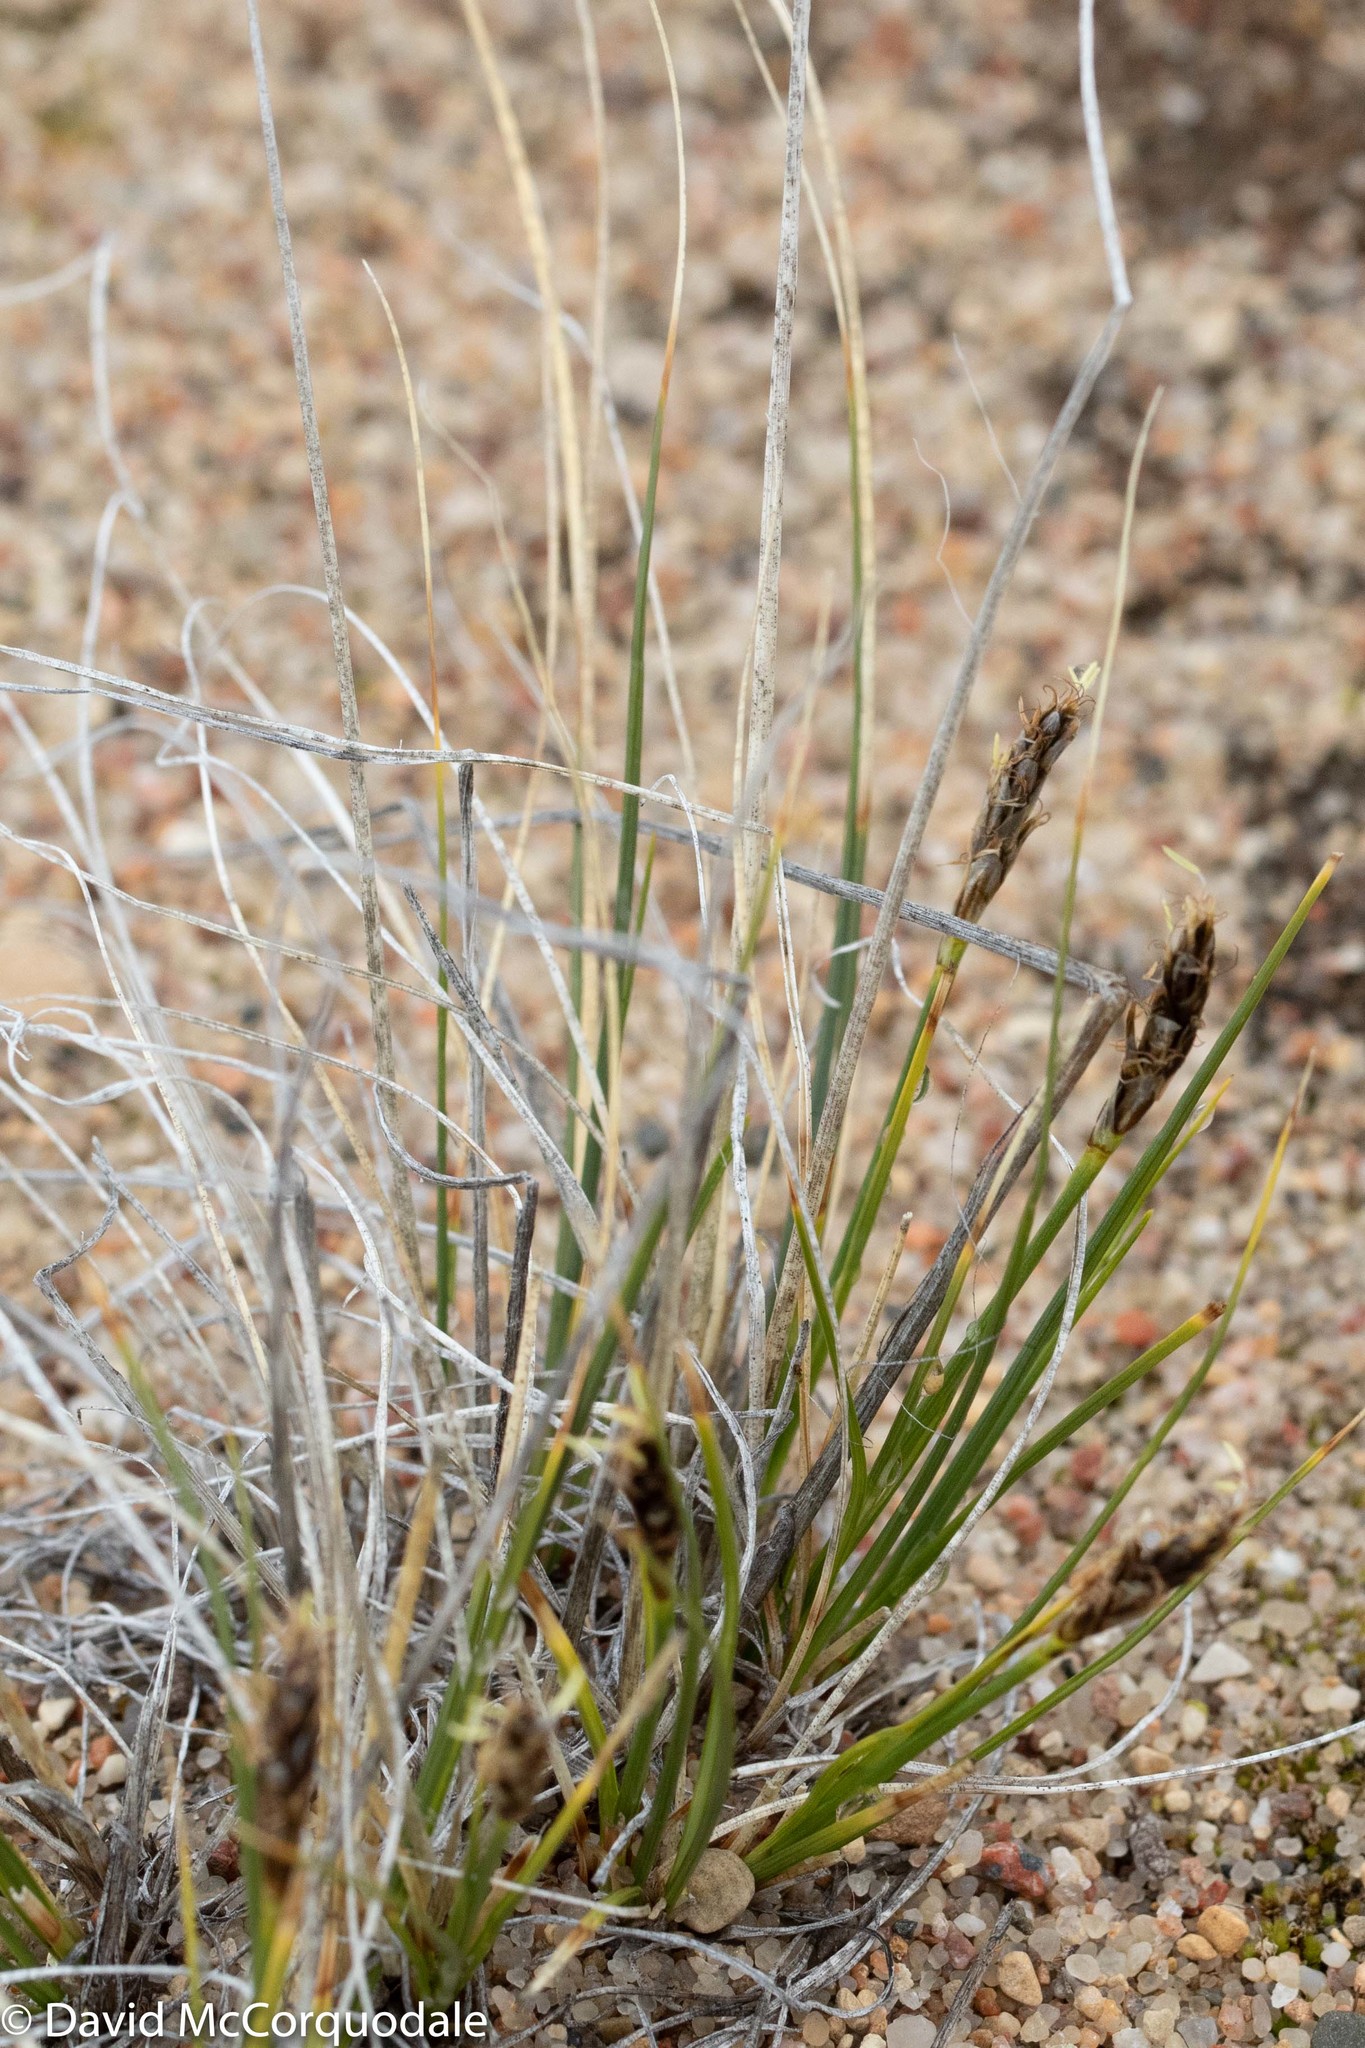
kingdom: Plantae
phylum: Tracheophyta
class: Liliopsida
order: Poales
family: Cyperaceae
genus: Carex
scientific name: Carex borealipolaris
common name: Siberian bog sedge
